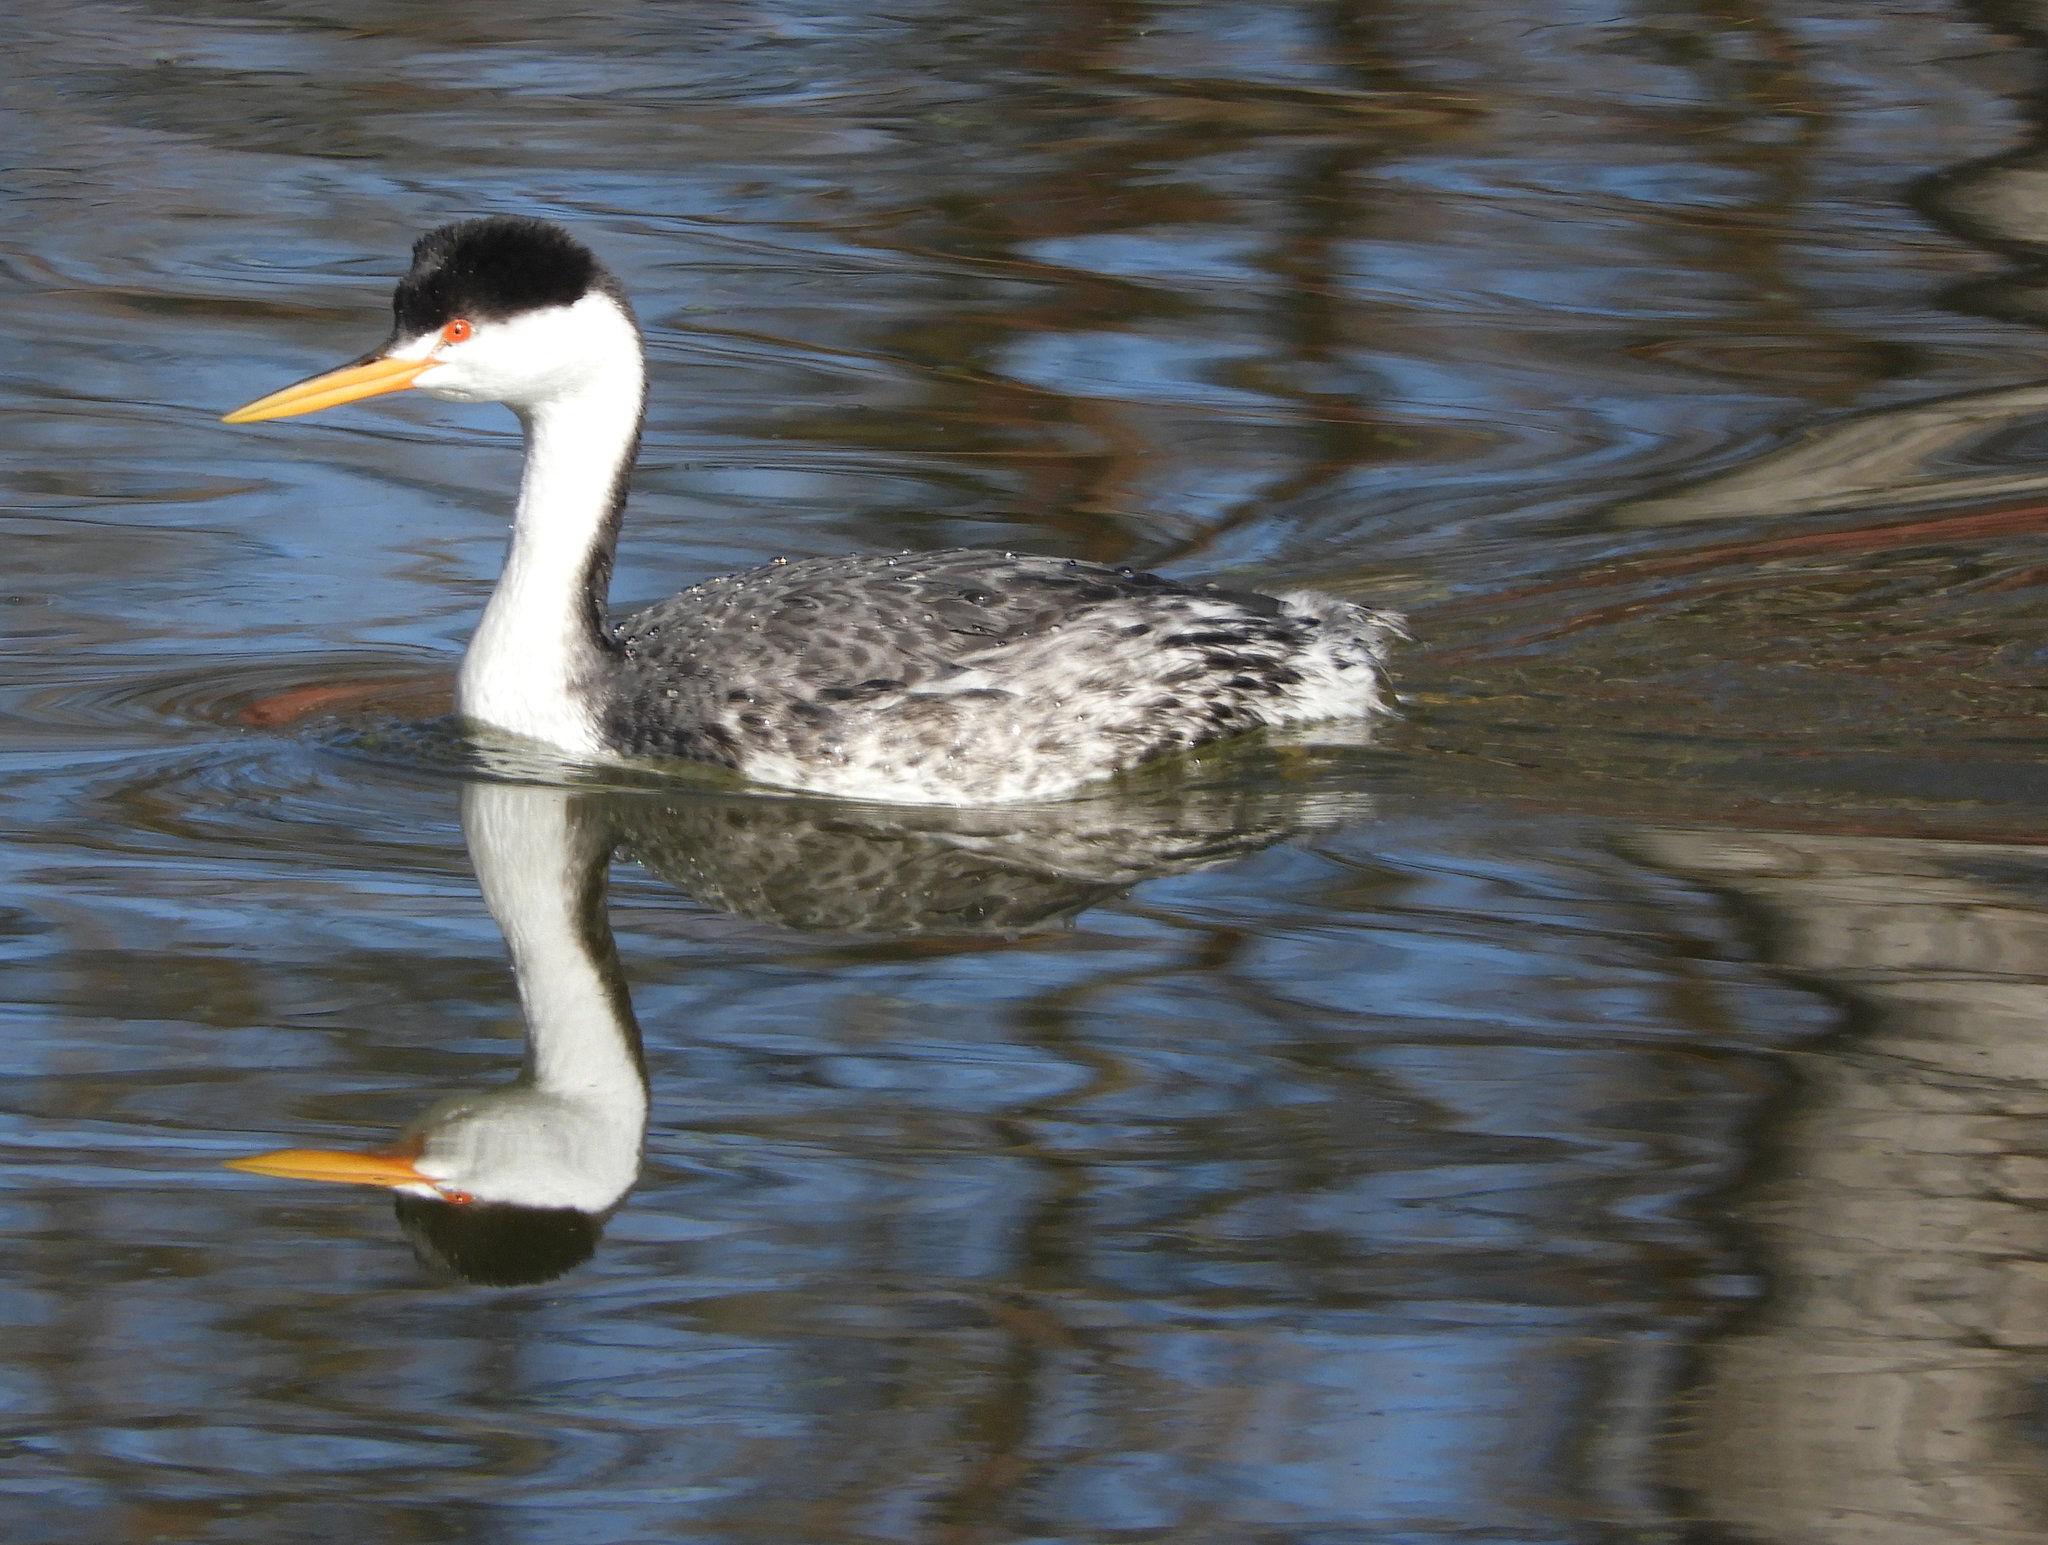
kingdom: Animalia
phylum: Chordata
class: Aves
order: Podicipediformes
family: Podicipedidae
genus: Aechmophorus
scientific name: Aechmophorus clarkii
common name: Clark's grebe
